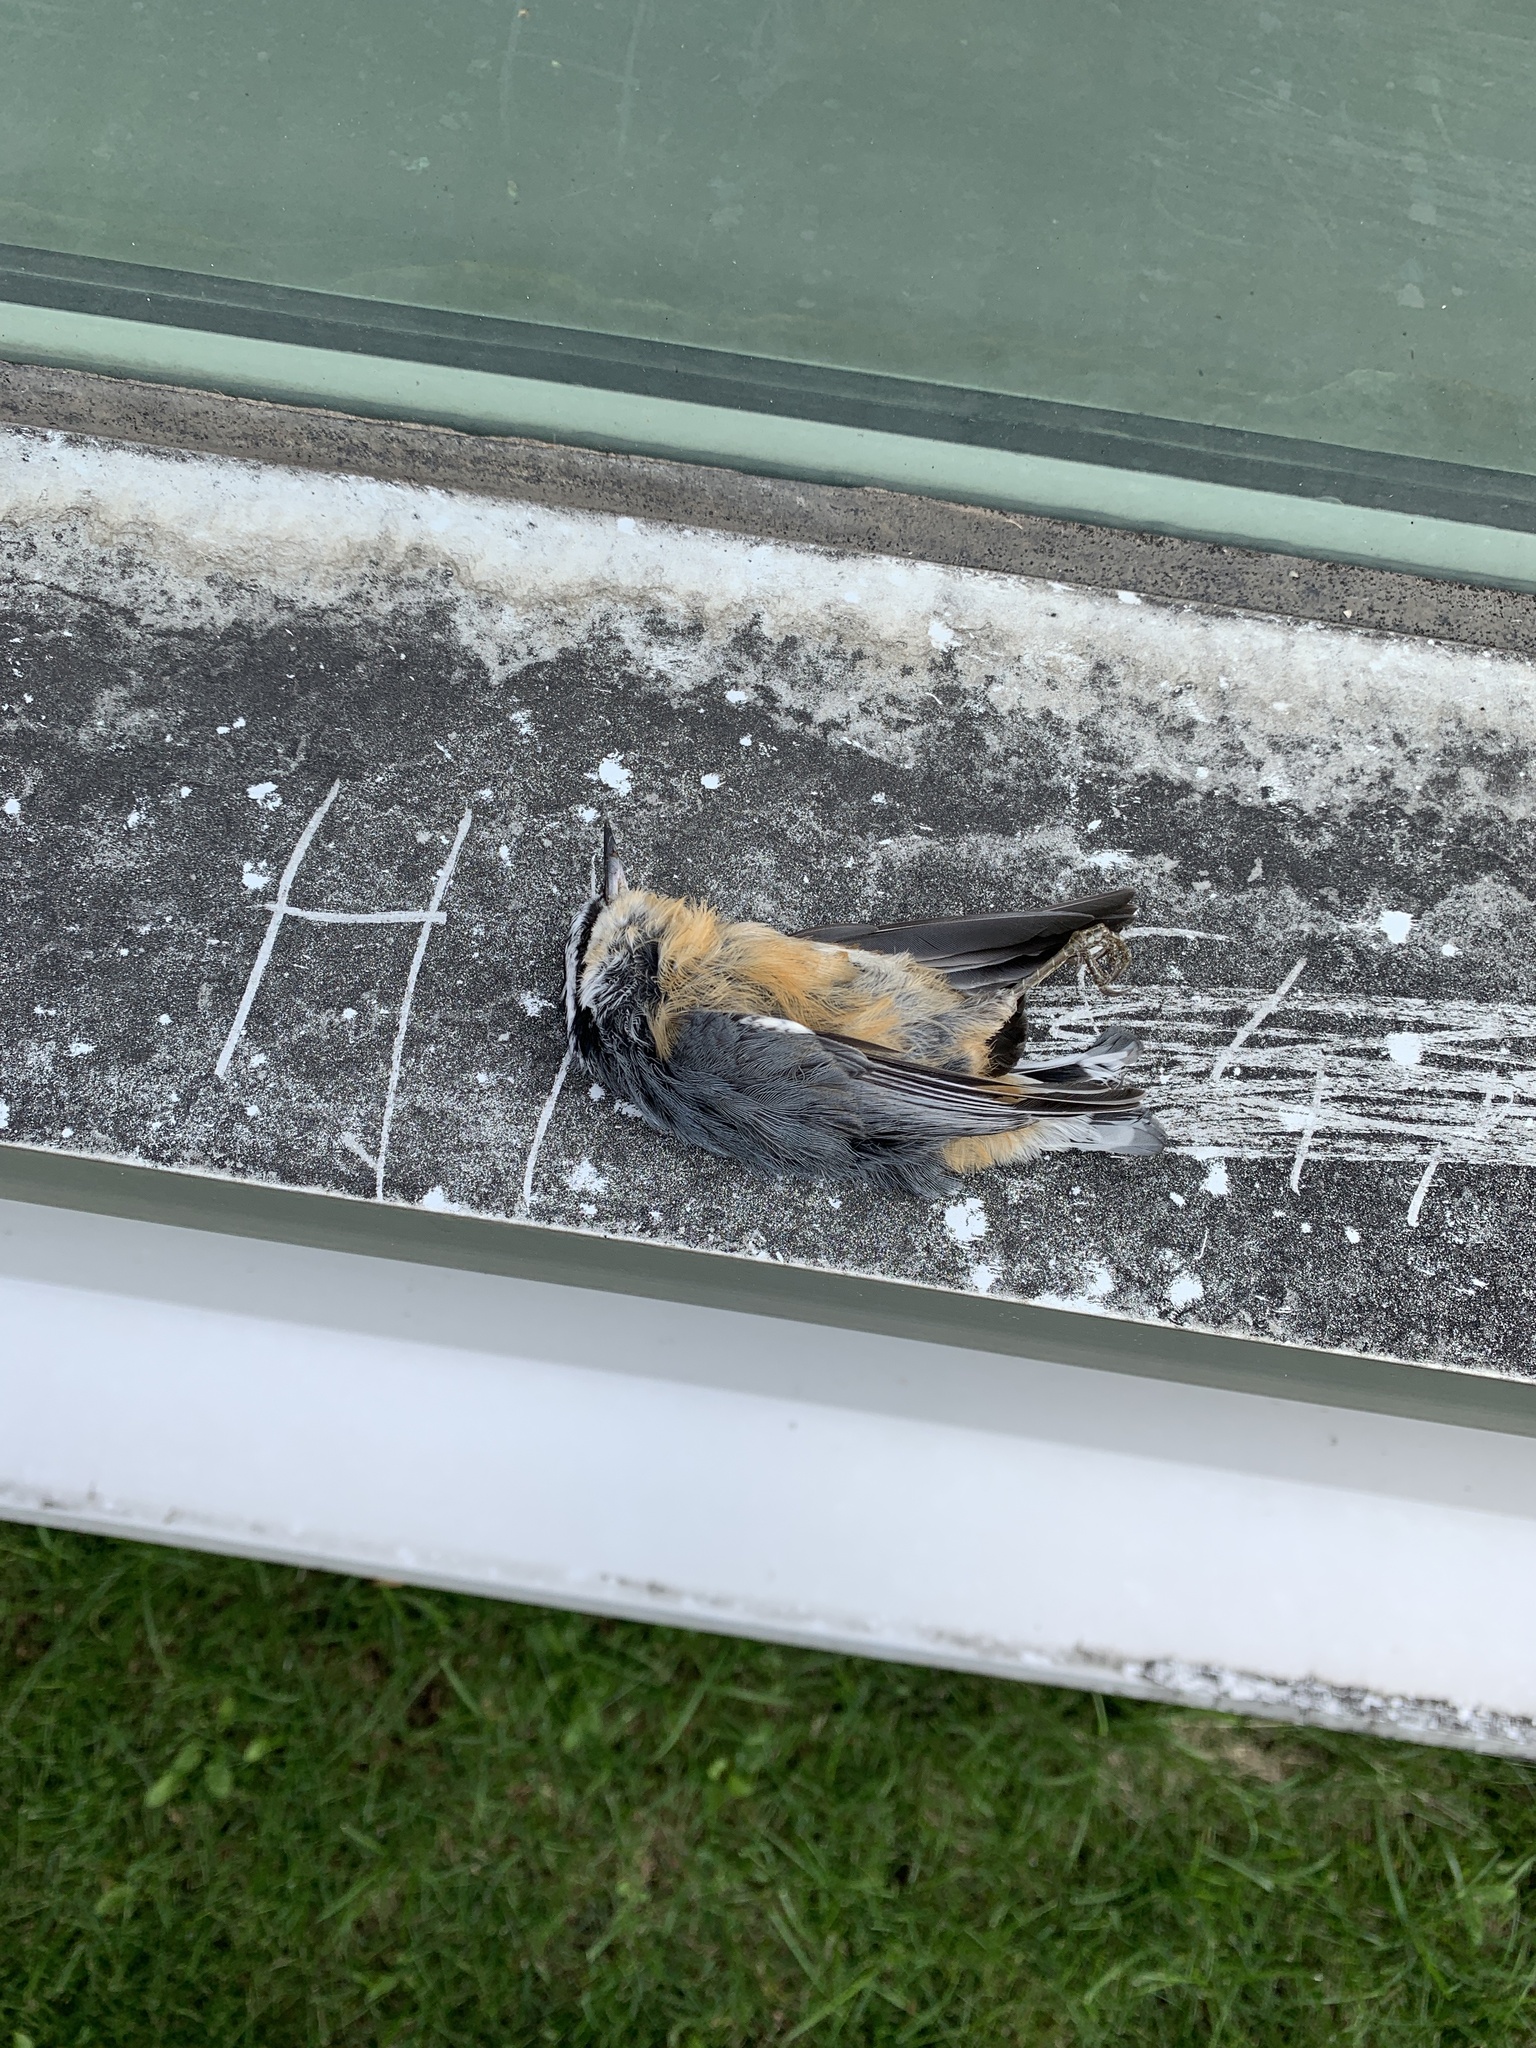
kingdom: Animalia
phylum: Chordata
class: Aves
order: Passeriformes
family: Sittidae
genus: Sitta
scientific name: Sitta canadensis
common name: Red-breasted nuthatch
